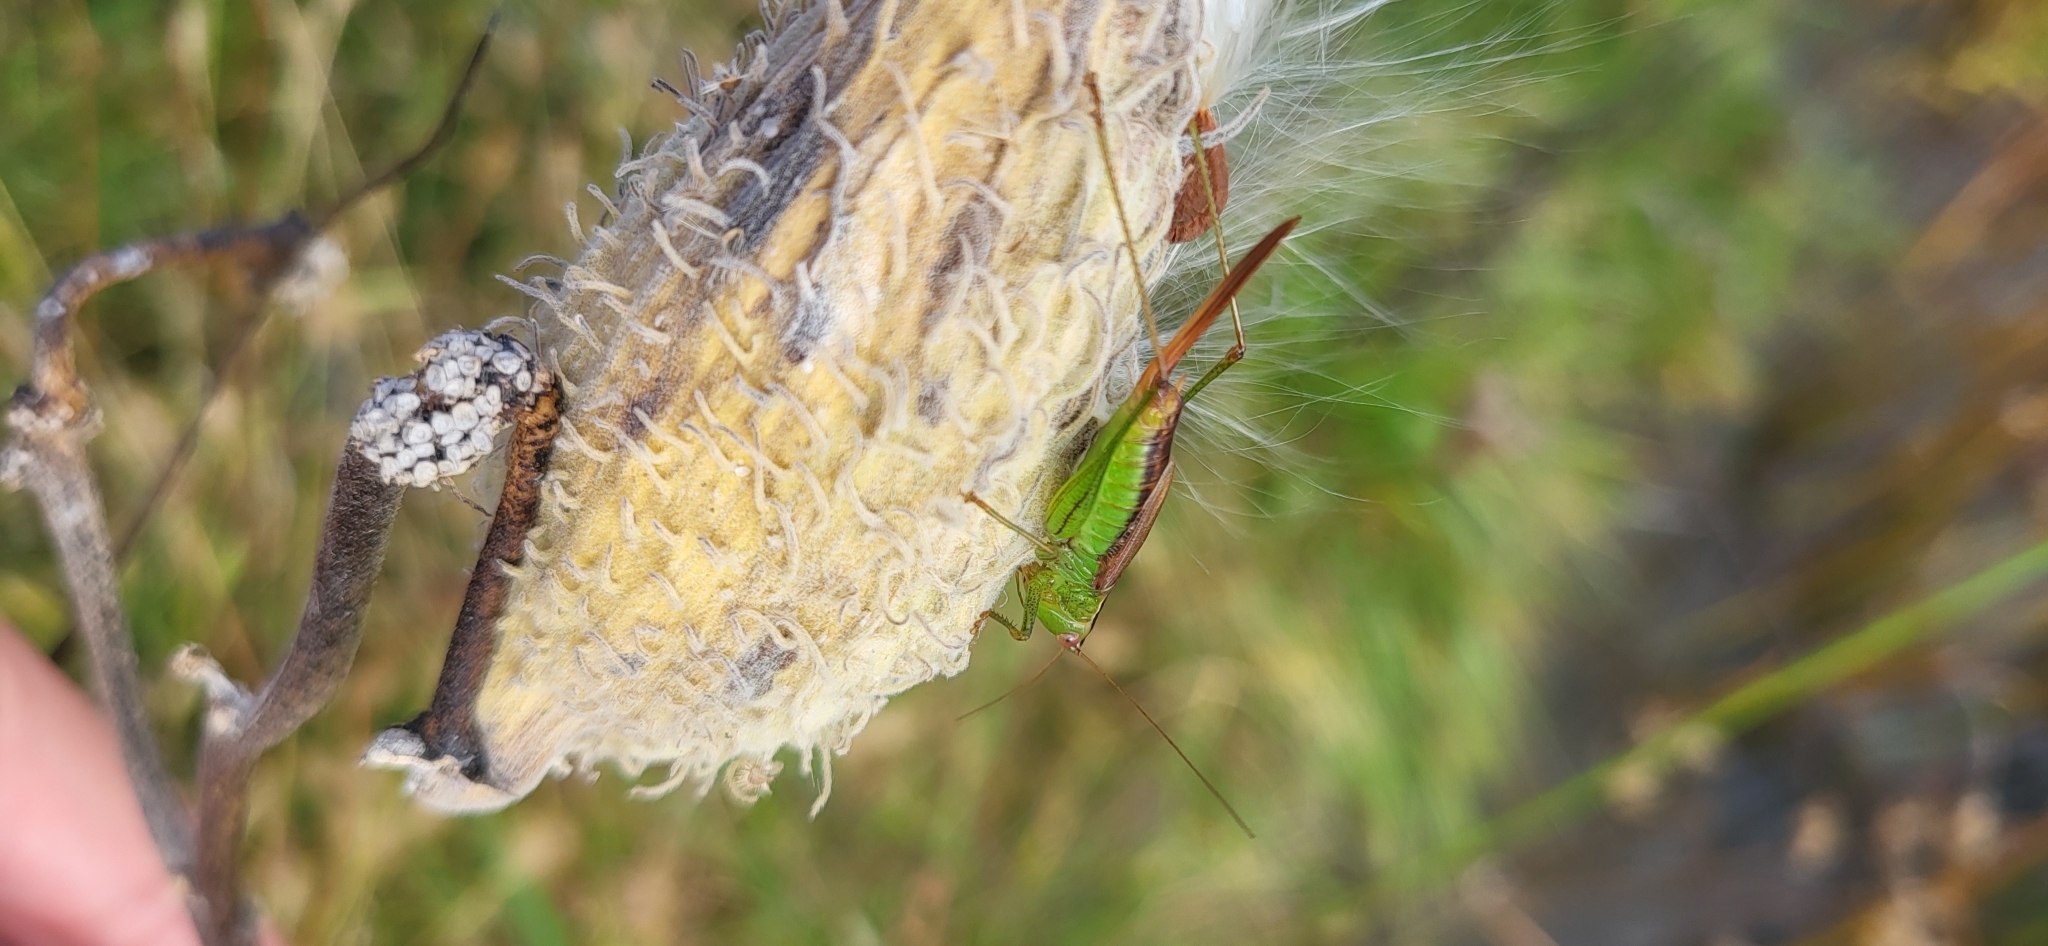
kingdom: Animalia
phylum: Arthropoda
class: Insecta
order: Orthoptera
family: Tettigoniidae
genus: Conocephalus
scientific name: Conocephalus brevipennis
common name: Short-winged meadow katydid
